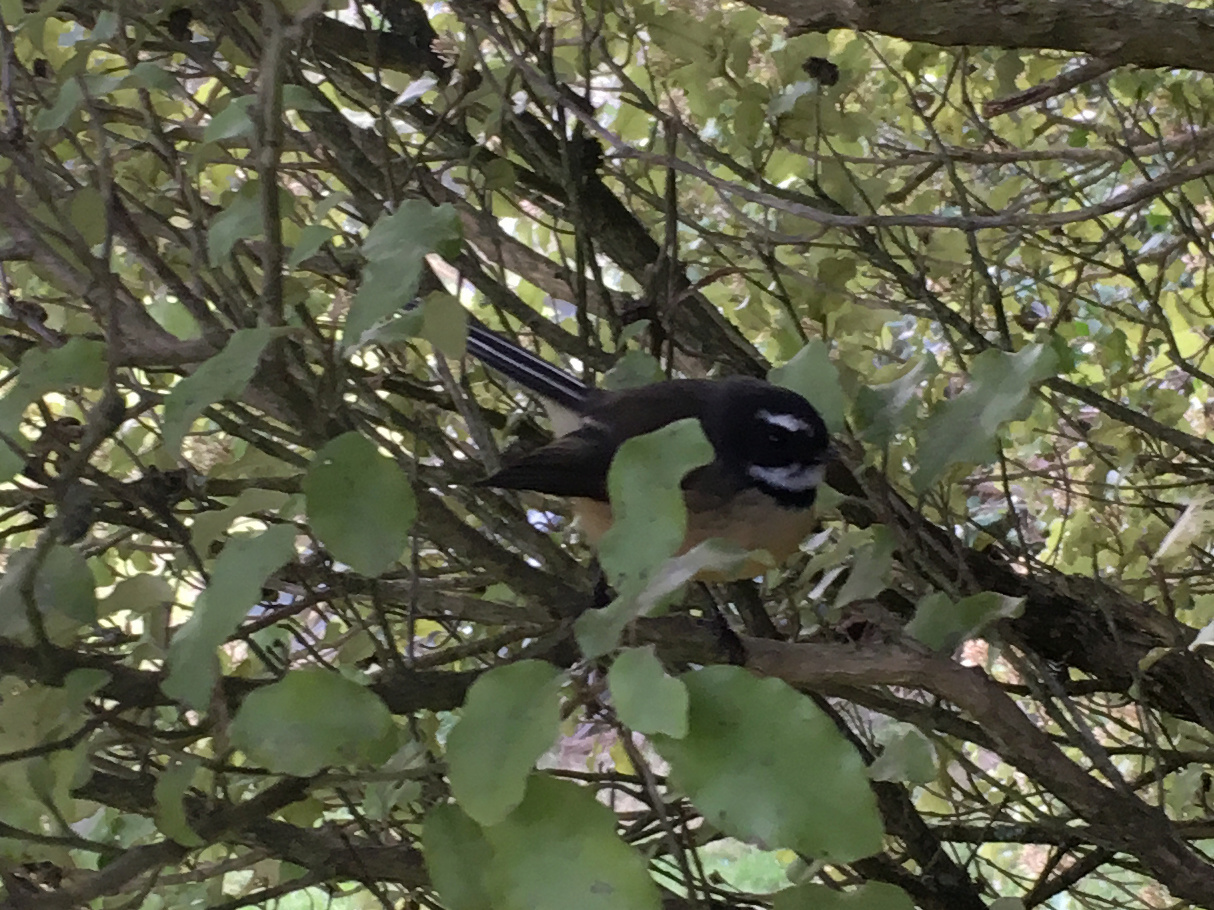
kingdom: Animalia
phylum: Chordata
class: Aves
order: Passeriformes
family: Rhipiduridae
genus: Rhipidura
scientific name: Rhipidura fuliginosa
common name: New zealand fantail
